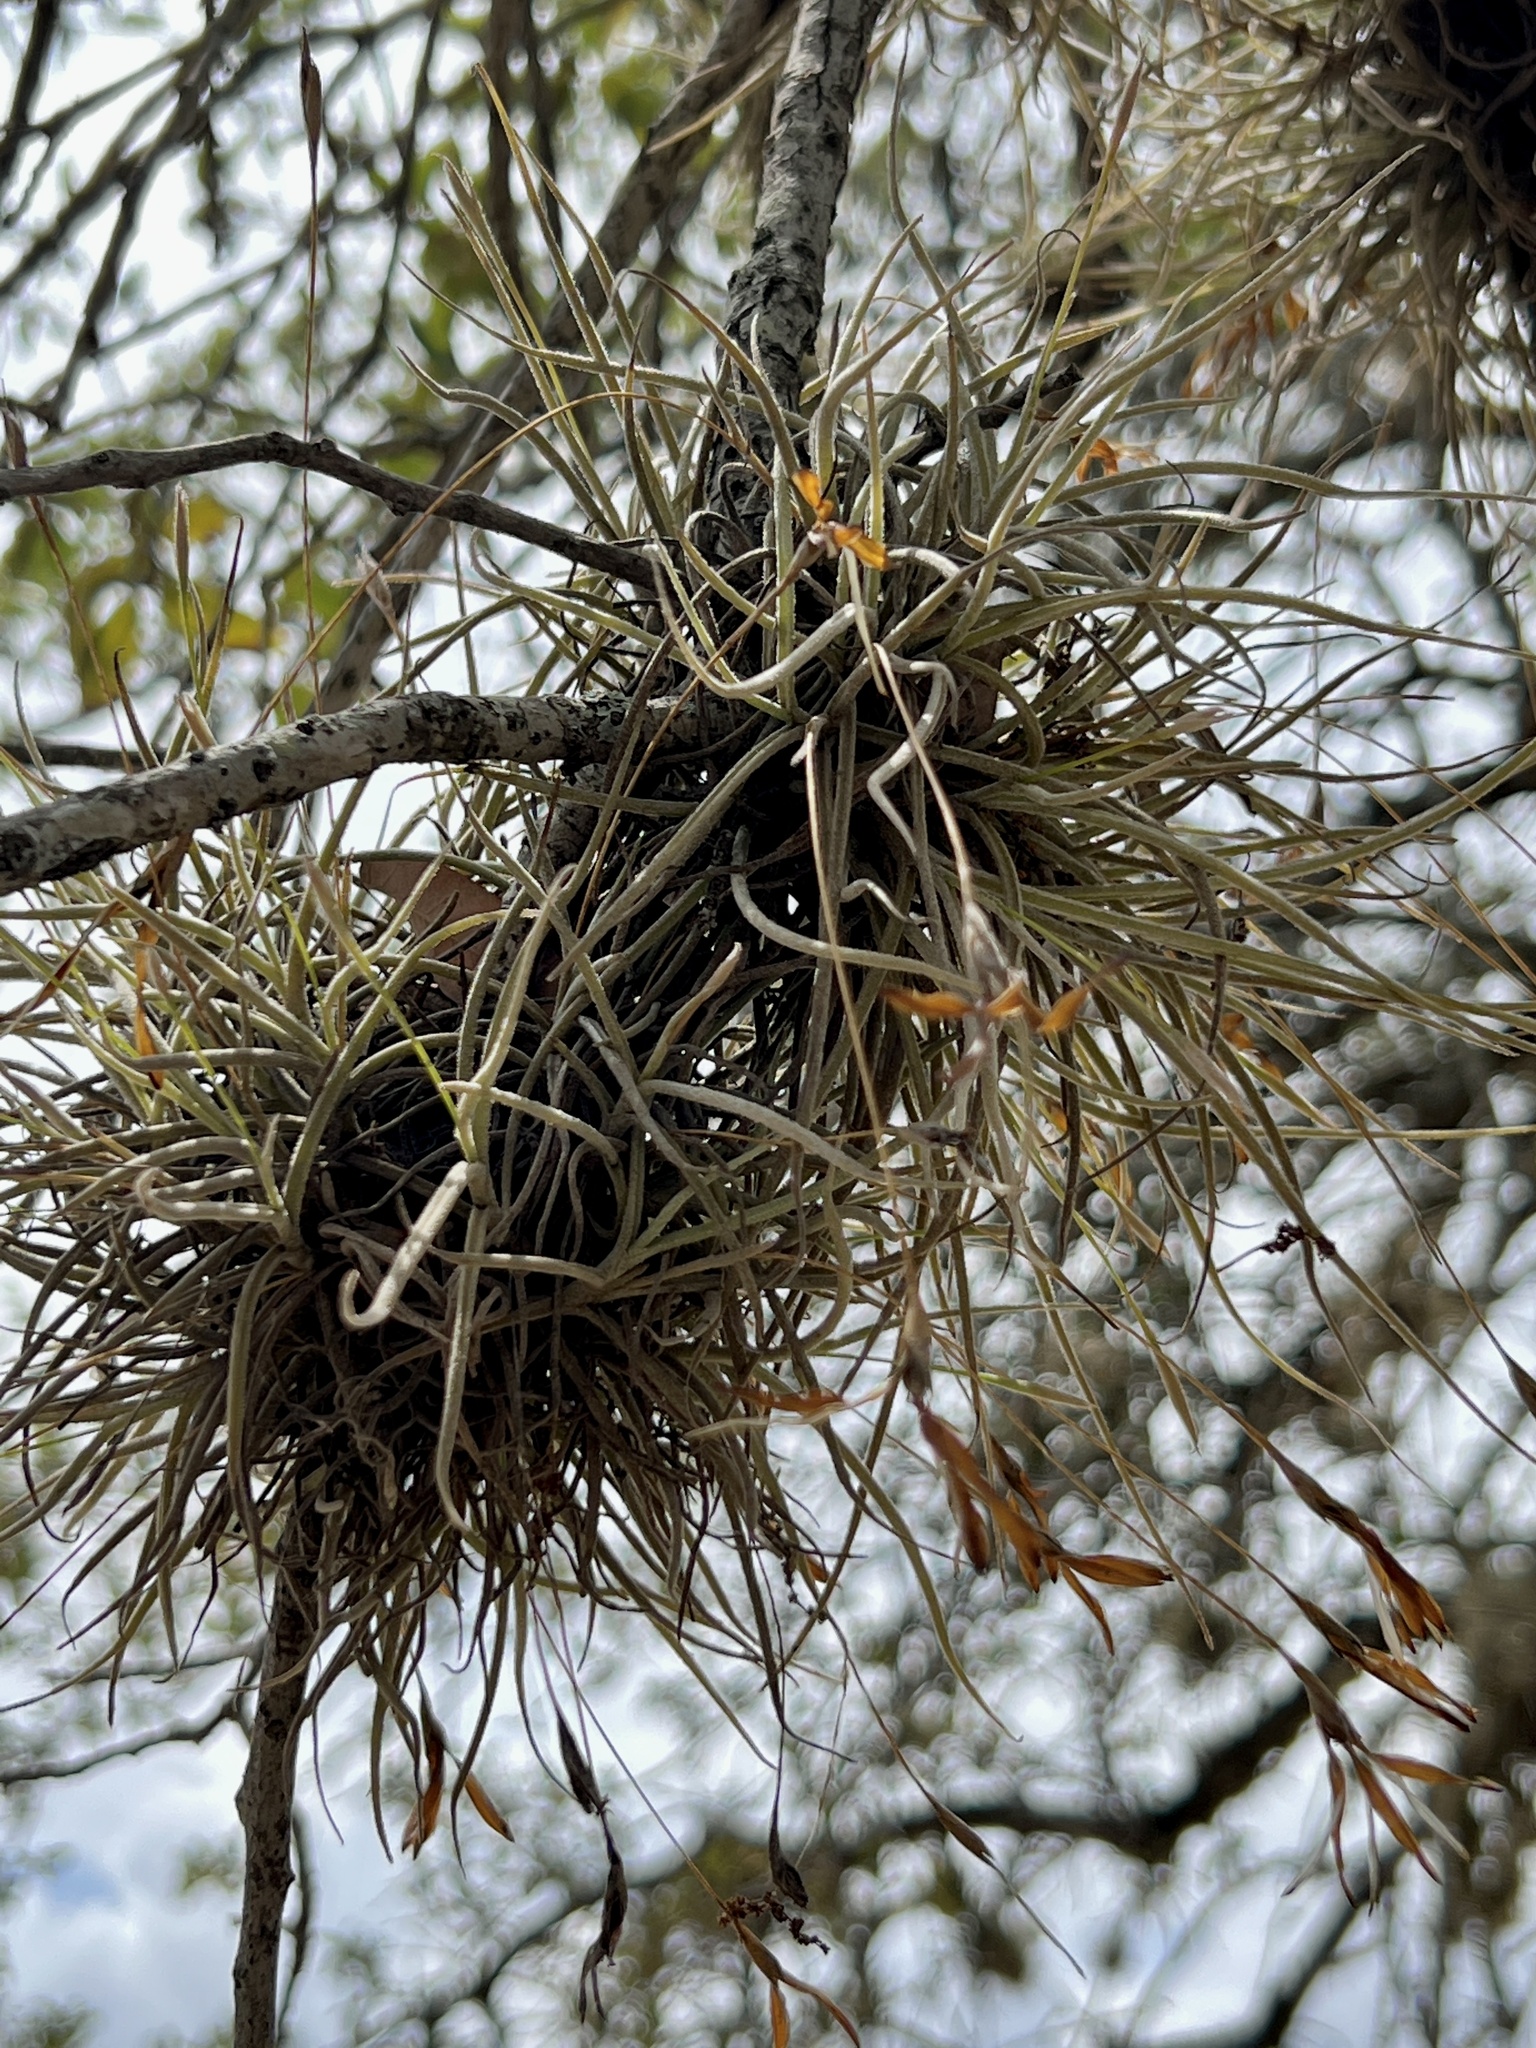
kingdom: Plantae
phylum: Tracheophyta
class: Liliopsida
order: Poales
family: Bromeliaceae
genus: Tillandsia
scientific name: Tillandsia recurvata
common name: Small ballmoss
